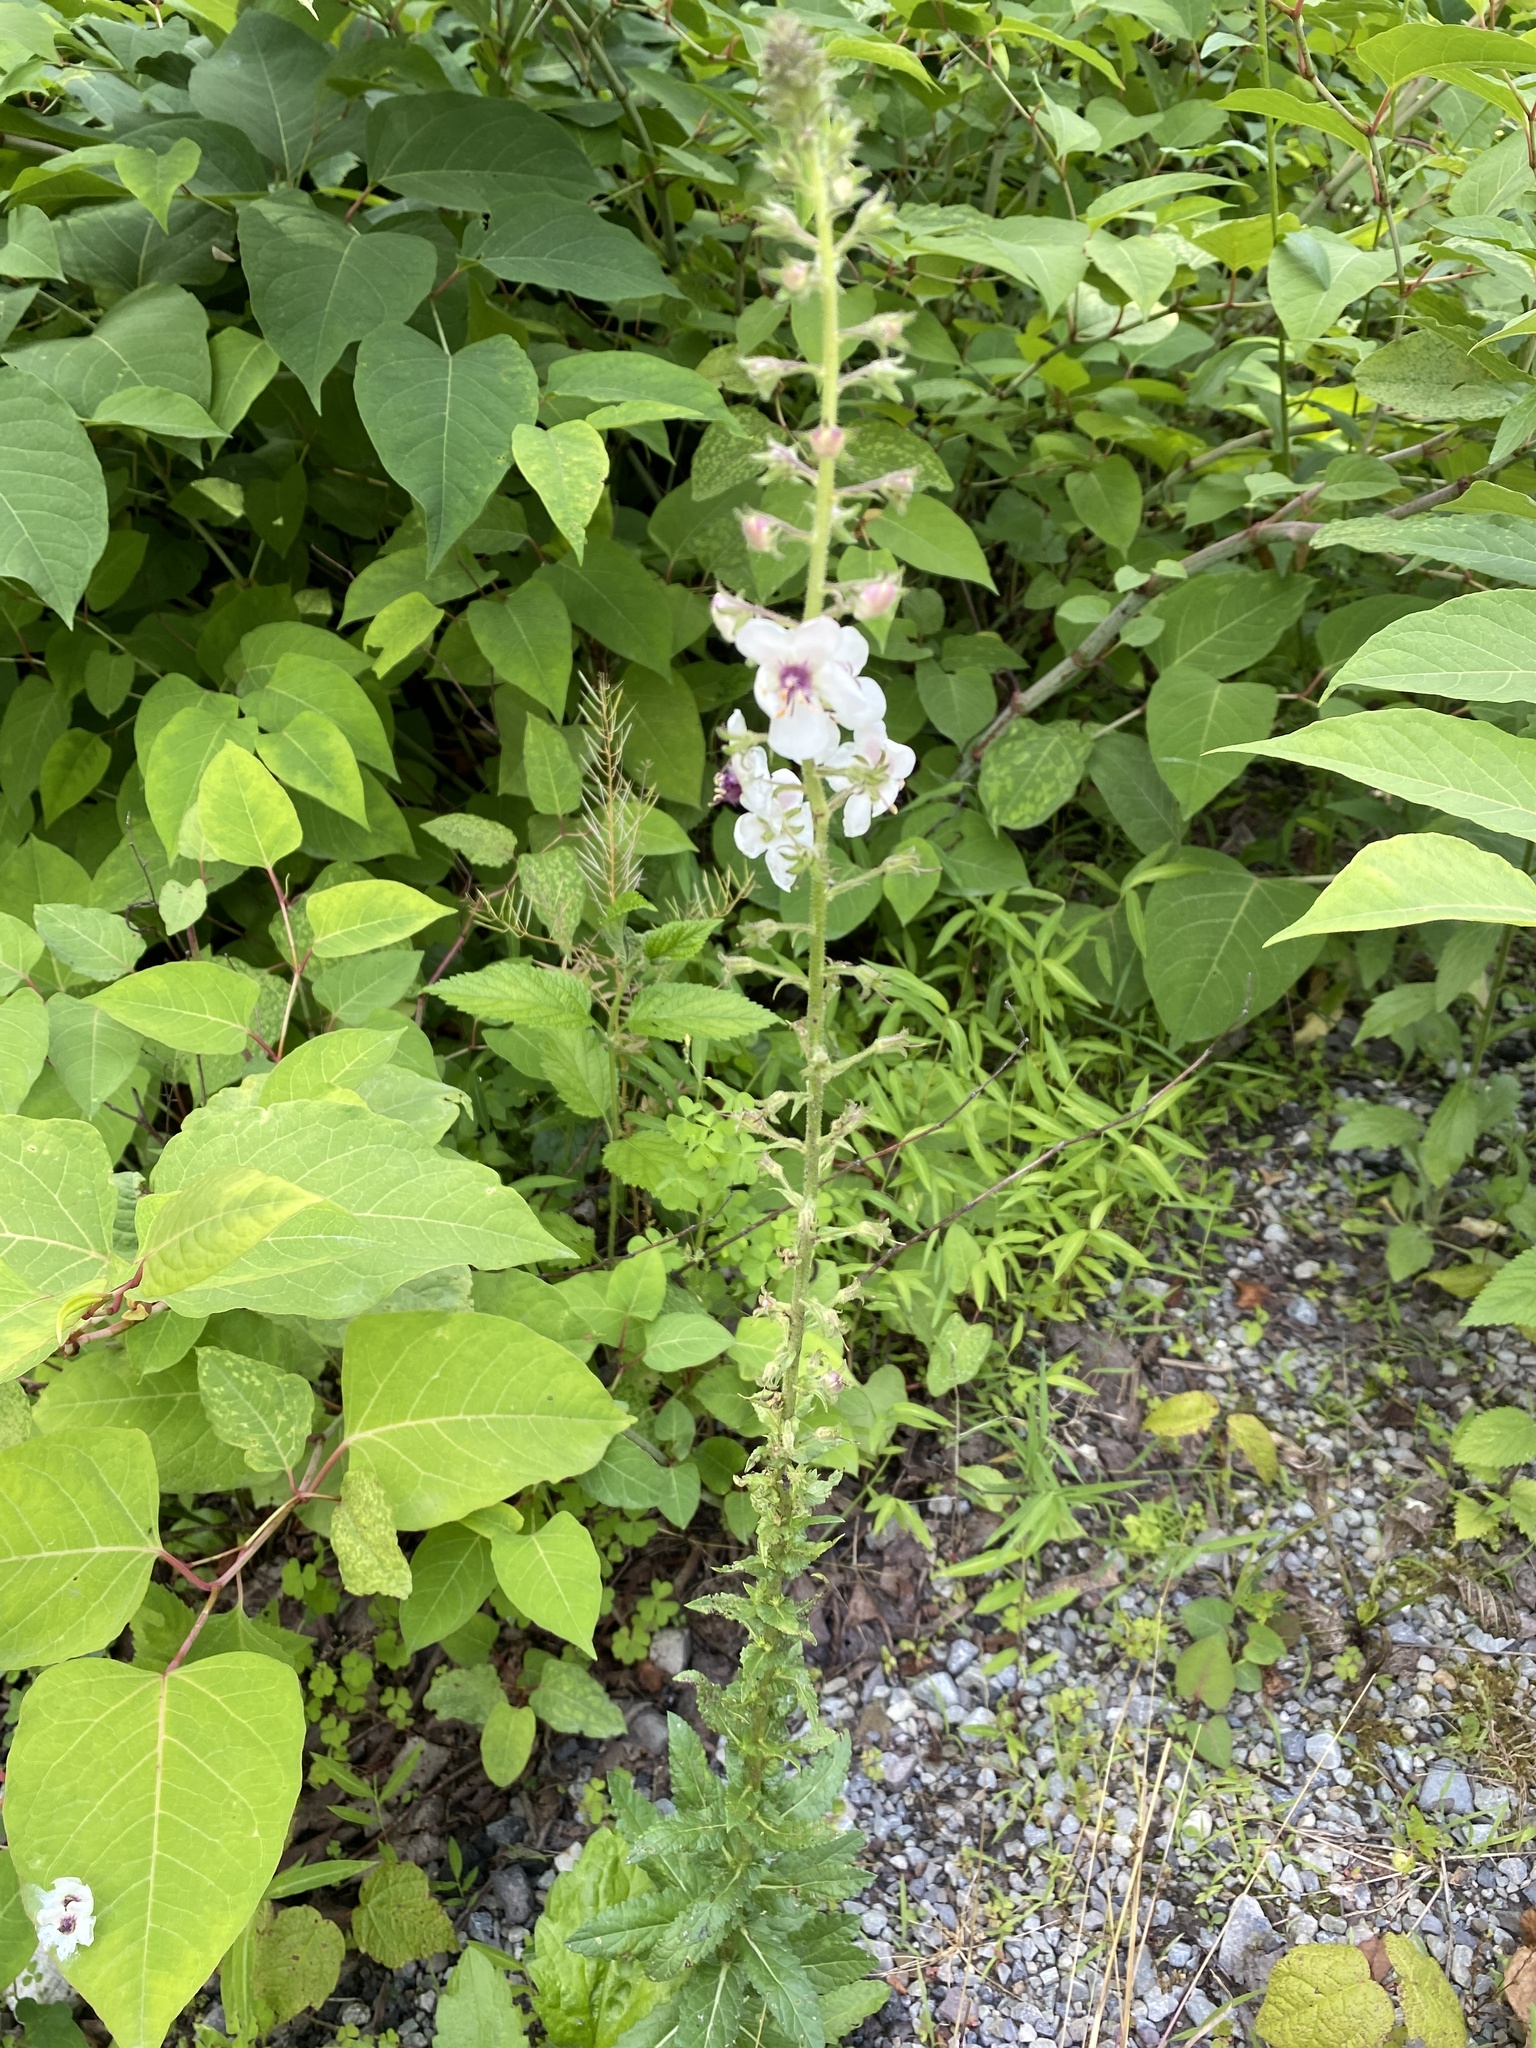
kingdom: Plantae
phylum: Tracheophyta
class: Magnoliopsida
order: Lamiales
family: Scrophulariaceae
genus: Verbascum
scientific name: Verbascum blattaria
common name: Moth mullein
